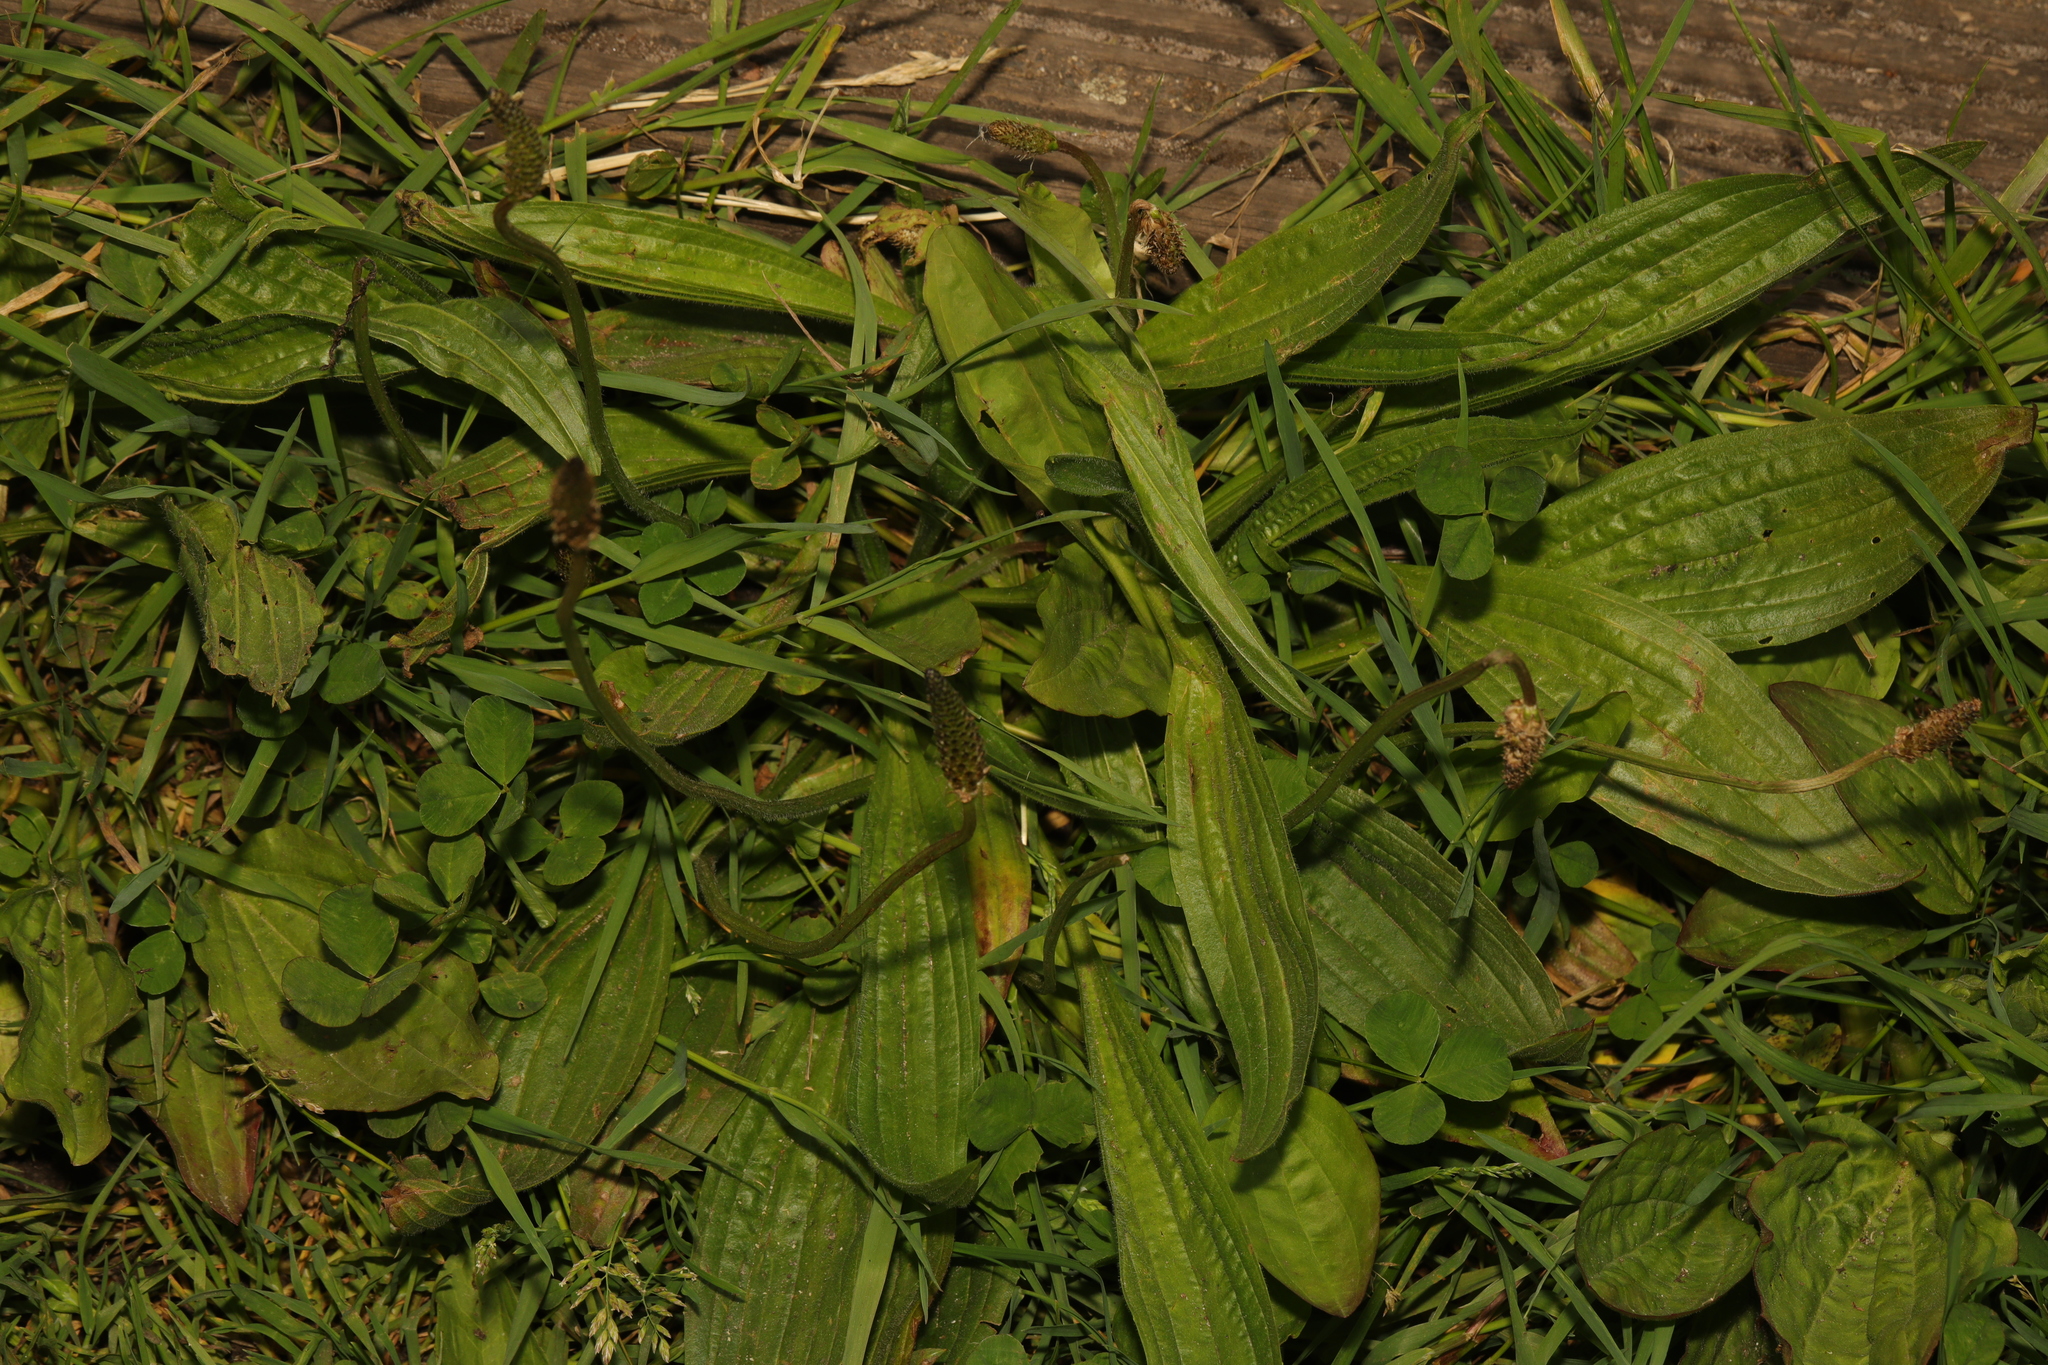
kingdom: Plantae
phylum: Tracheophyta
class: Magnoliopsida
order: Lamiales
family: Plantaginaceae
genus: Plantago
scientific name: Plantago lanceolata
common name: Ribwort plantain
